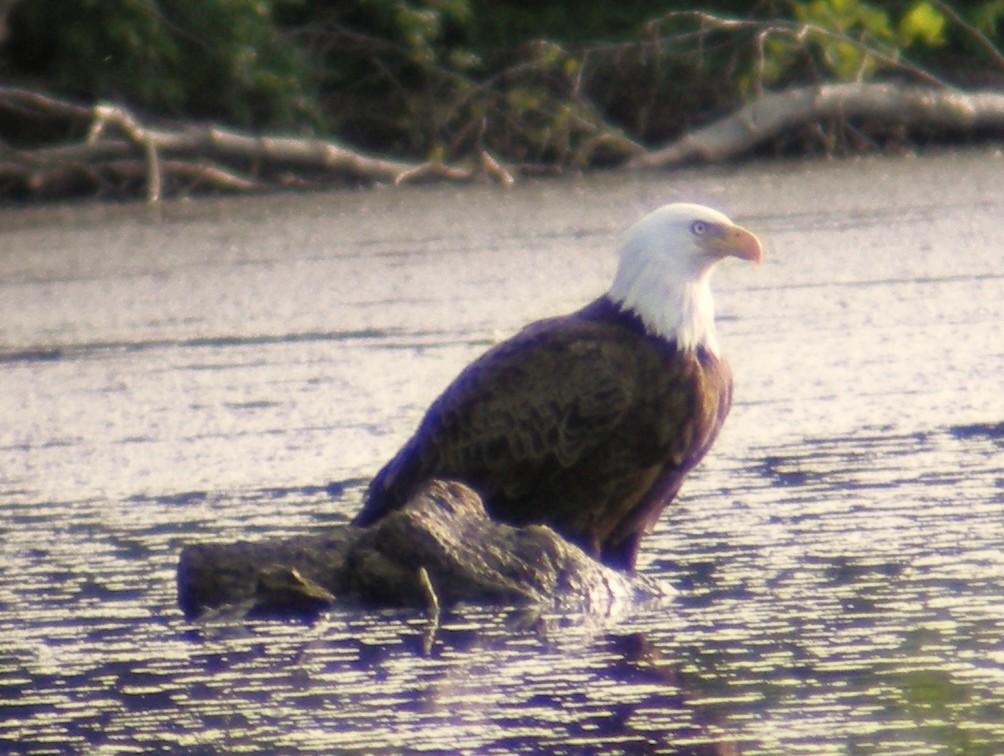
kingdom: Animalia
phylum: Chordata
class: Aves
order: Accipitriformes
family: Accipitridae
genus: Haliaeetus
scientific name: Haliaeetus leucocephalus
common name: Bald eagle
